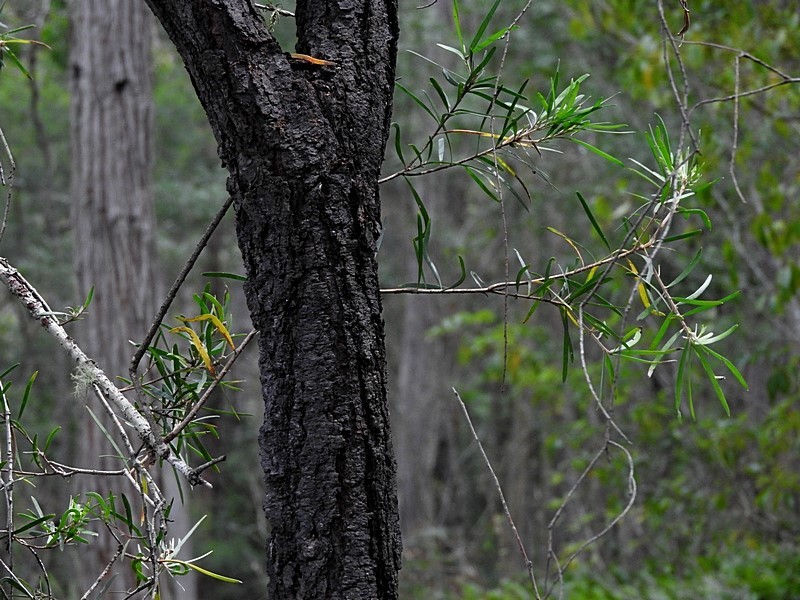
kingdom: Plantae
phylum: Tracheophyta
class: Magnoliopsida
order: Proteales
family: Proteaceae
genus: Persoonia
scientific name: Persoonia linearis
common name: Narrow-leaf geebung
